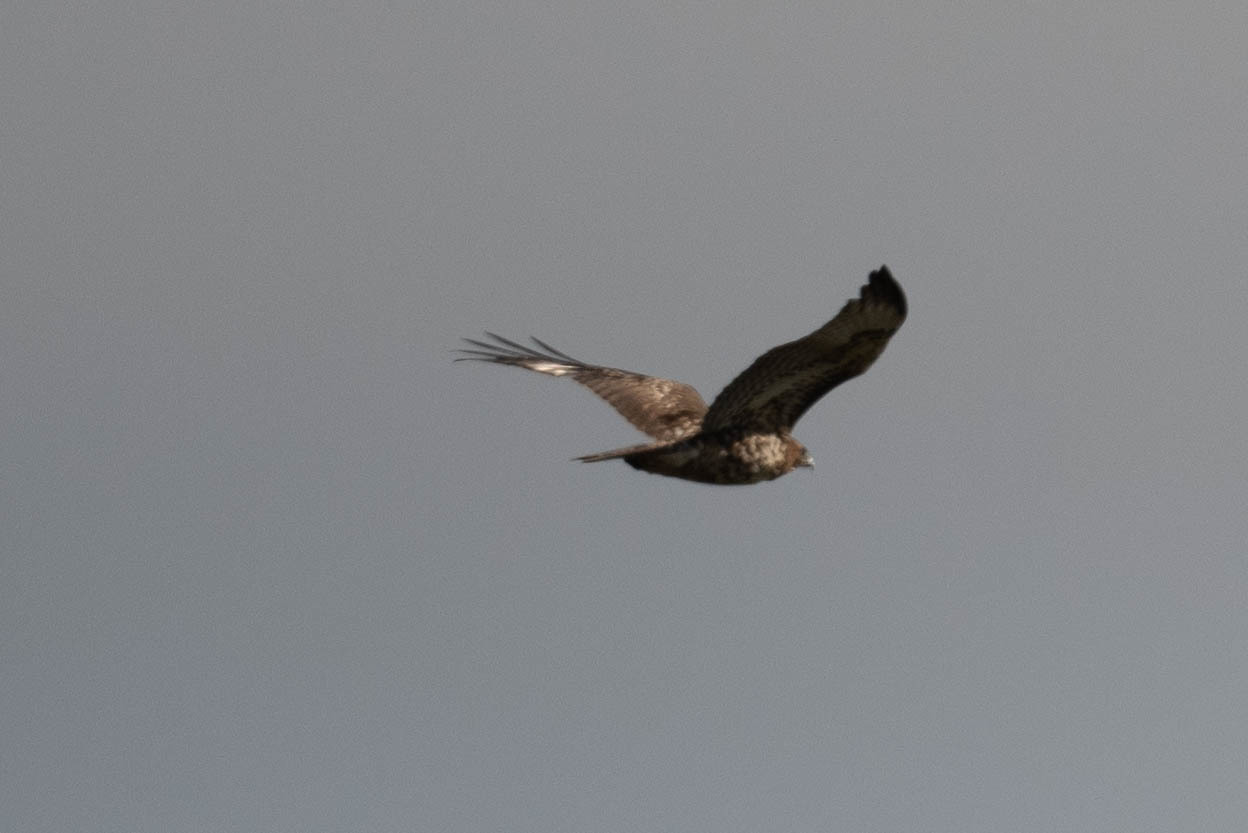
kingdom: Animalia
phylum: Chordata
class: Aves
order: Accipitriformes
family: Accipitridae
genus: Buteo
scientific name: Buteo jamaicensis
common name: Red-tailed hawk
